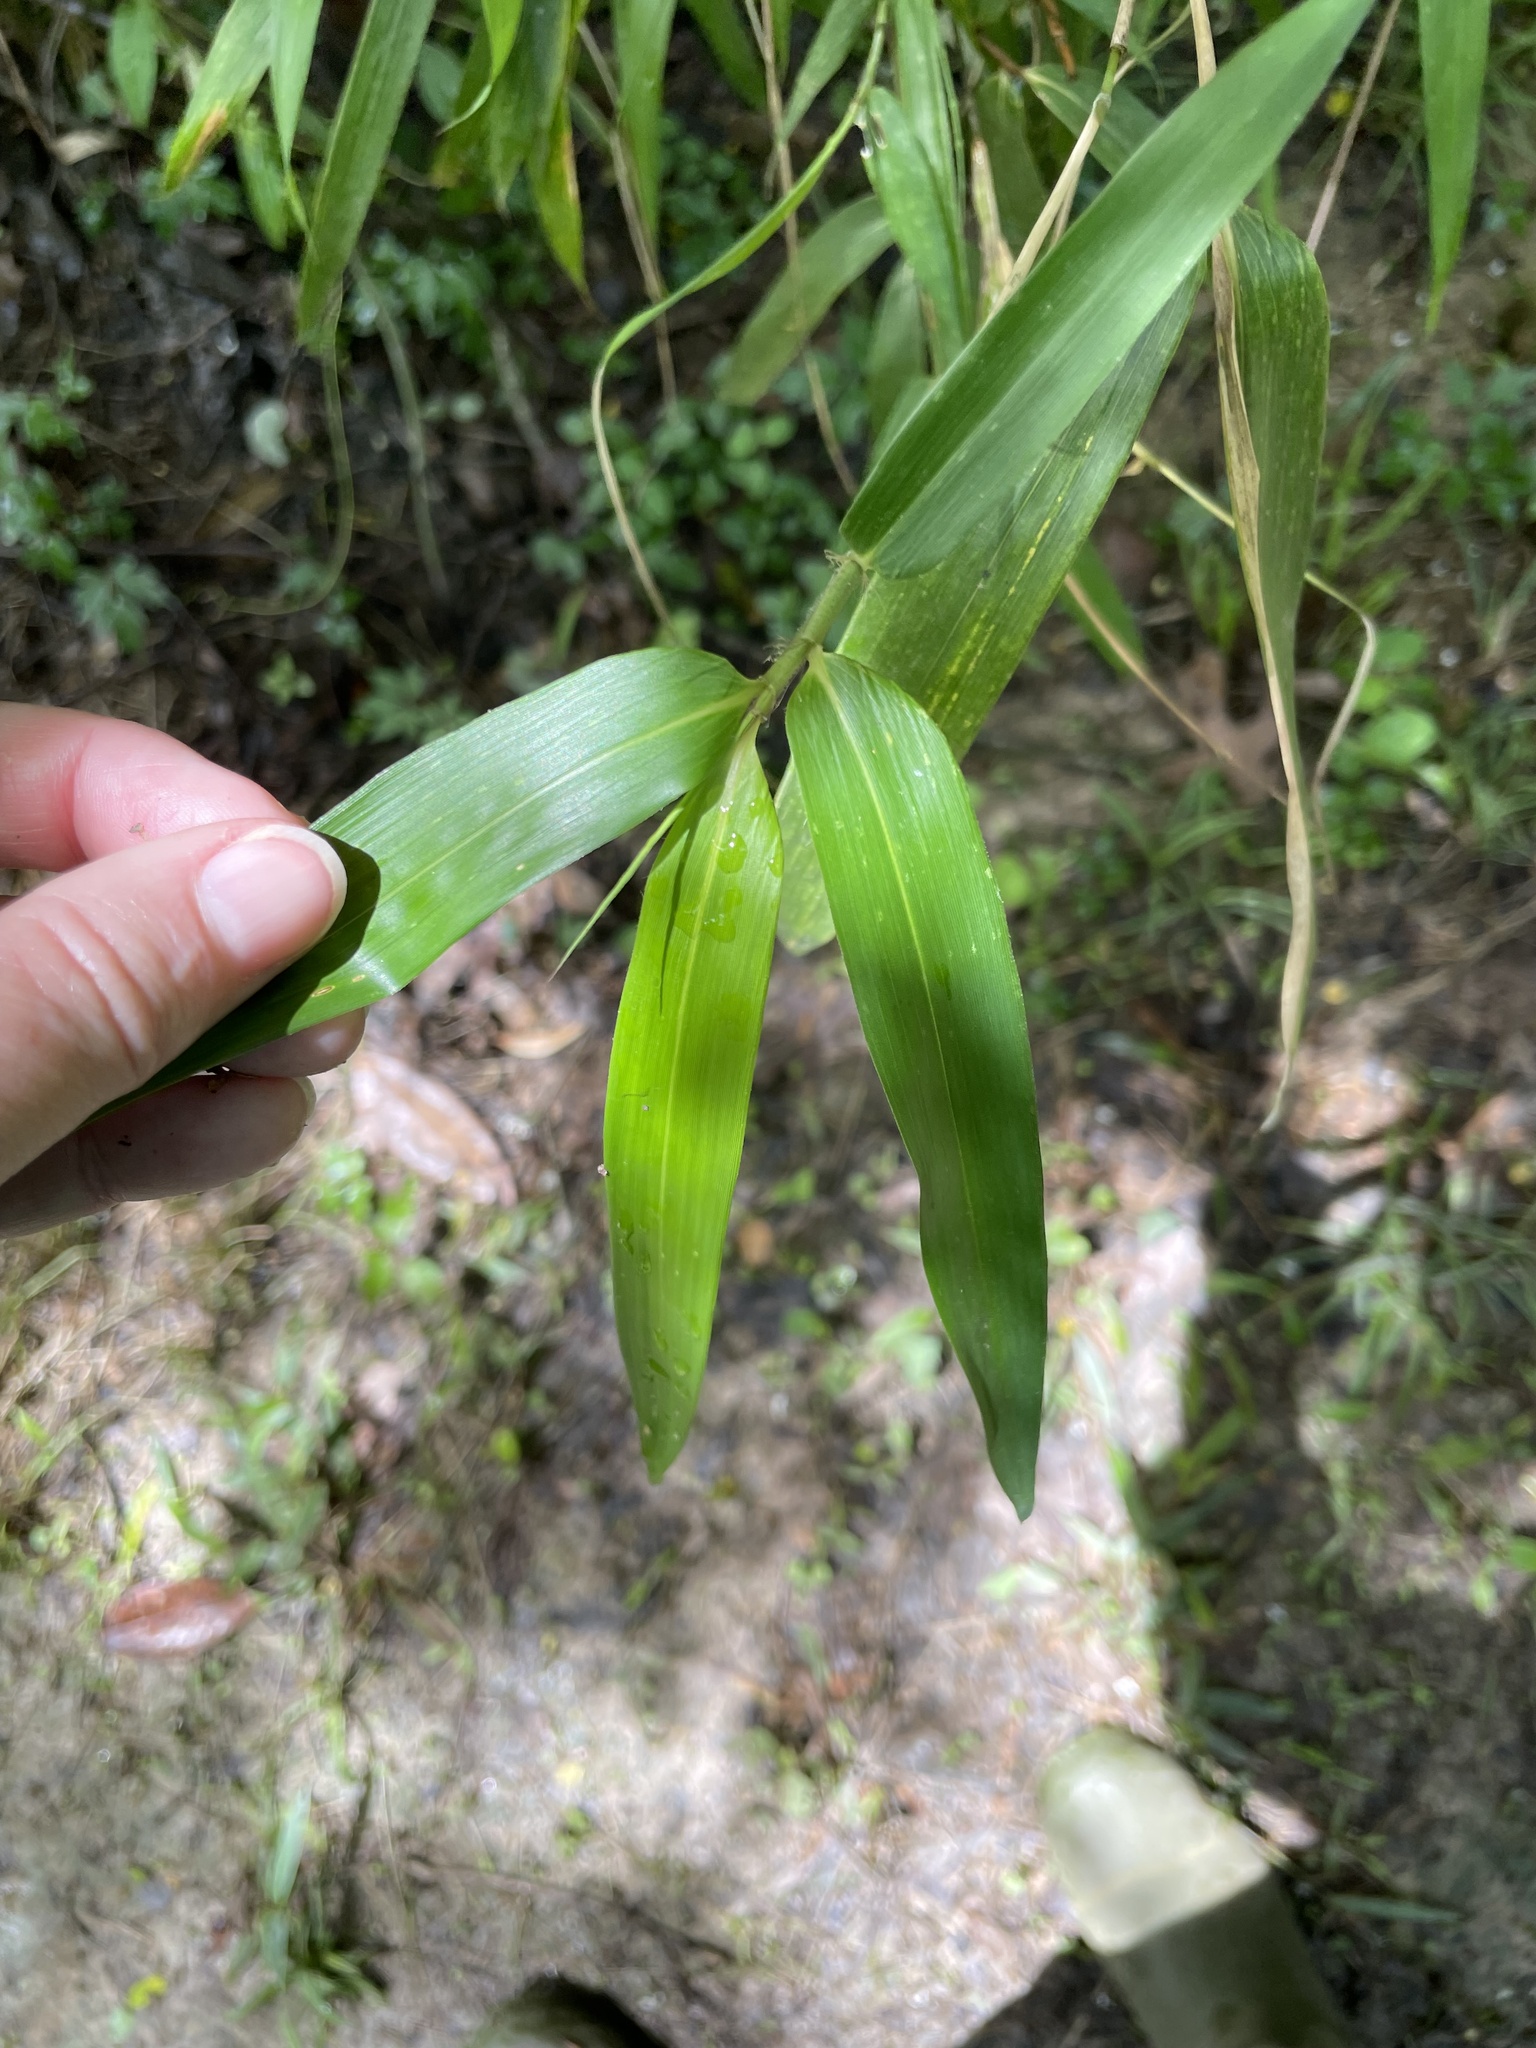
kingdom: Plantae
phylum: Tracheophyta
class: Liliopsida
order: Poales
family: Poaceae
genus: Arundinaria
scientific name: Arundinaria gigantea
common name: Giant cane
